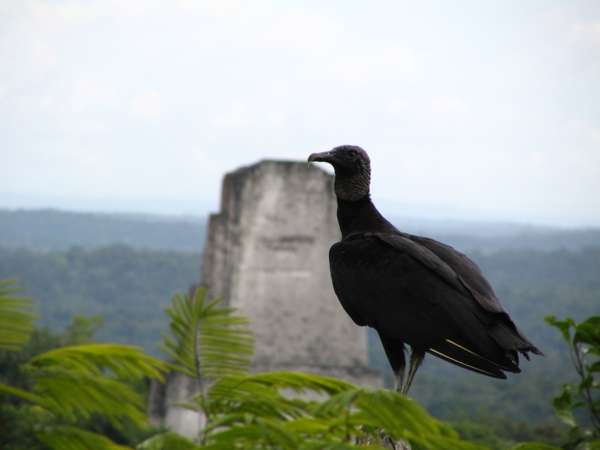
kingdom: Animalia
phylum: Chordata
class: Aves
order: Accipitriformes
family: Cathartidae
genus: Coragyps
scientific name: Coragyps atratus
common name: Black vulture
